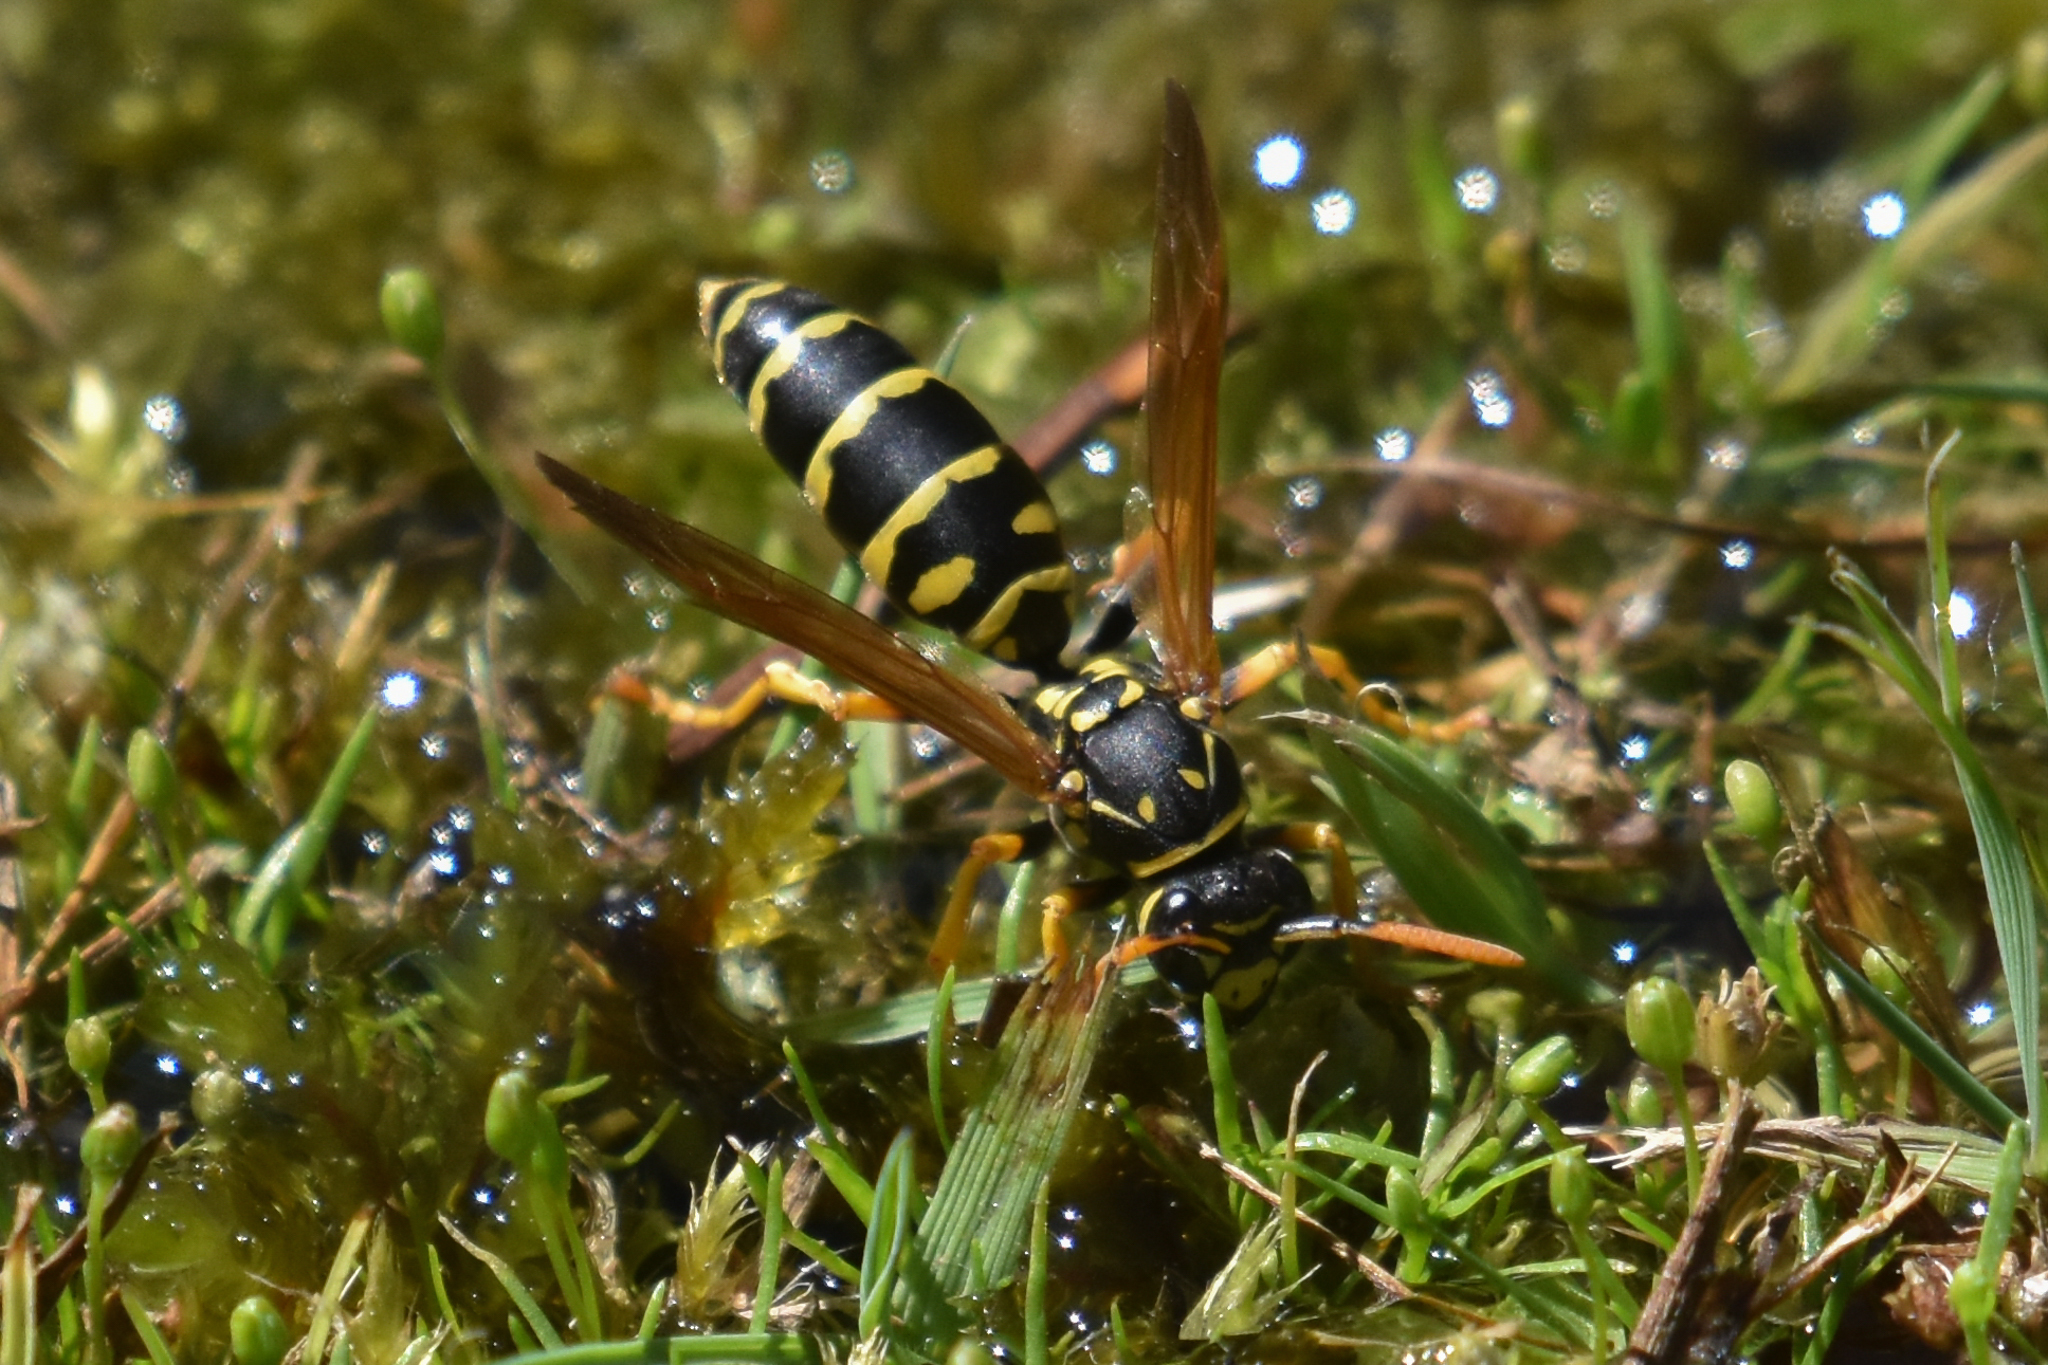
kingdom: Animalia
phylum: Arthropoda
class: Insecta
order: Hymenoptera
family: Eumenidae
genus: Polistes
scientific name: Polistes dominula
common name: Paper wasp
